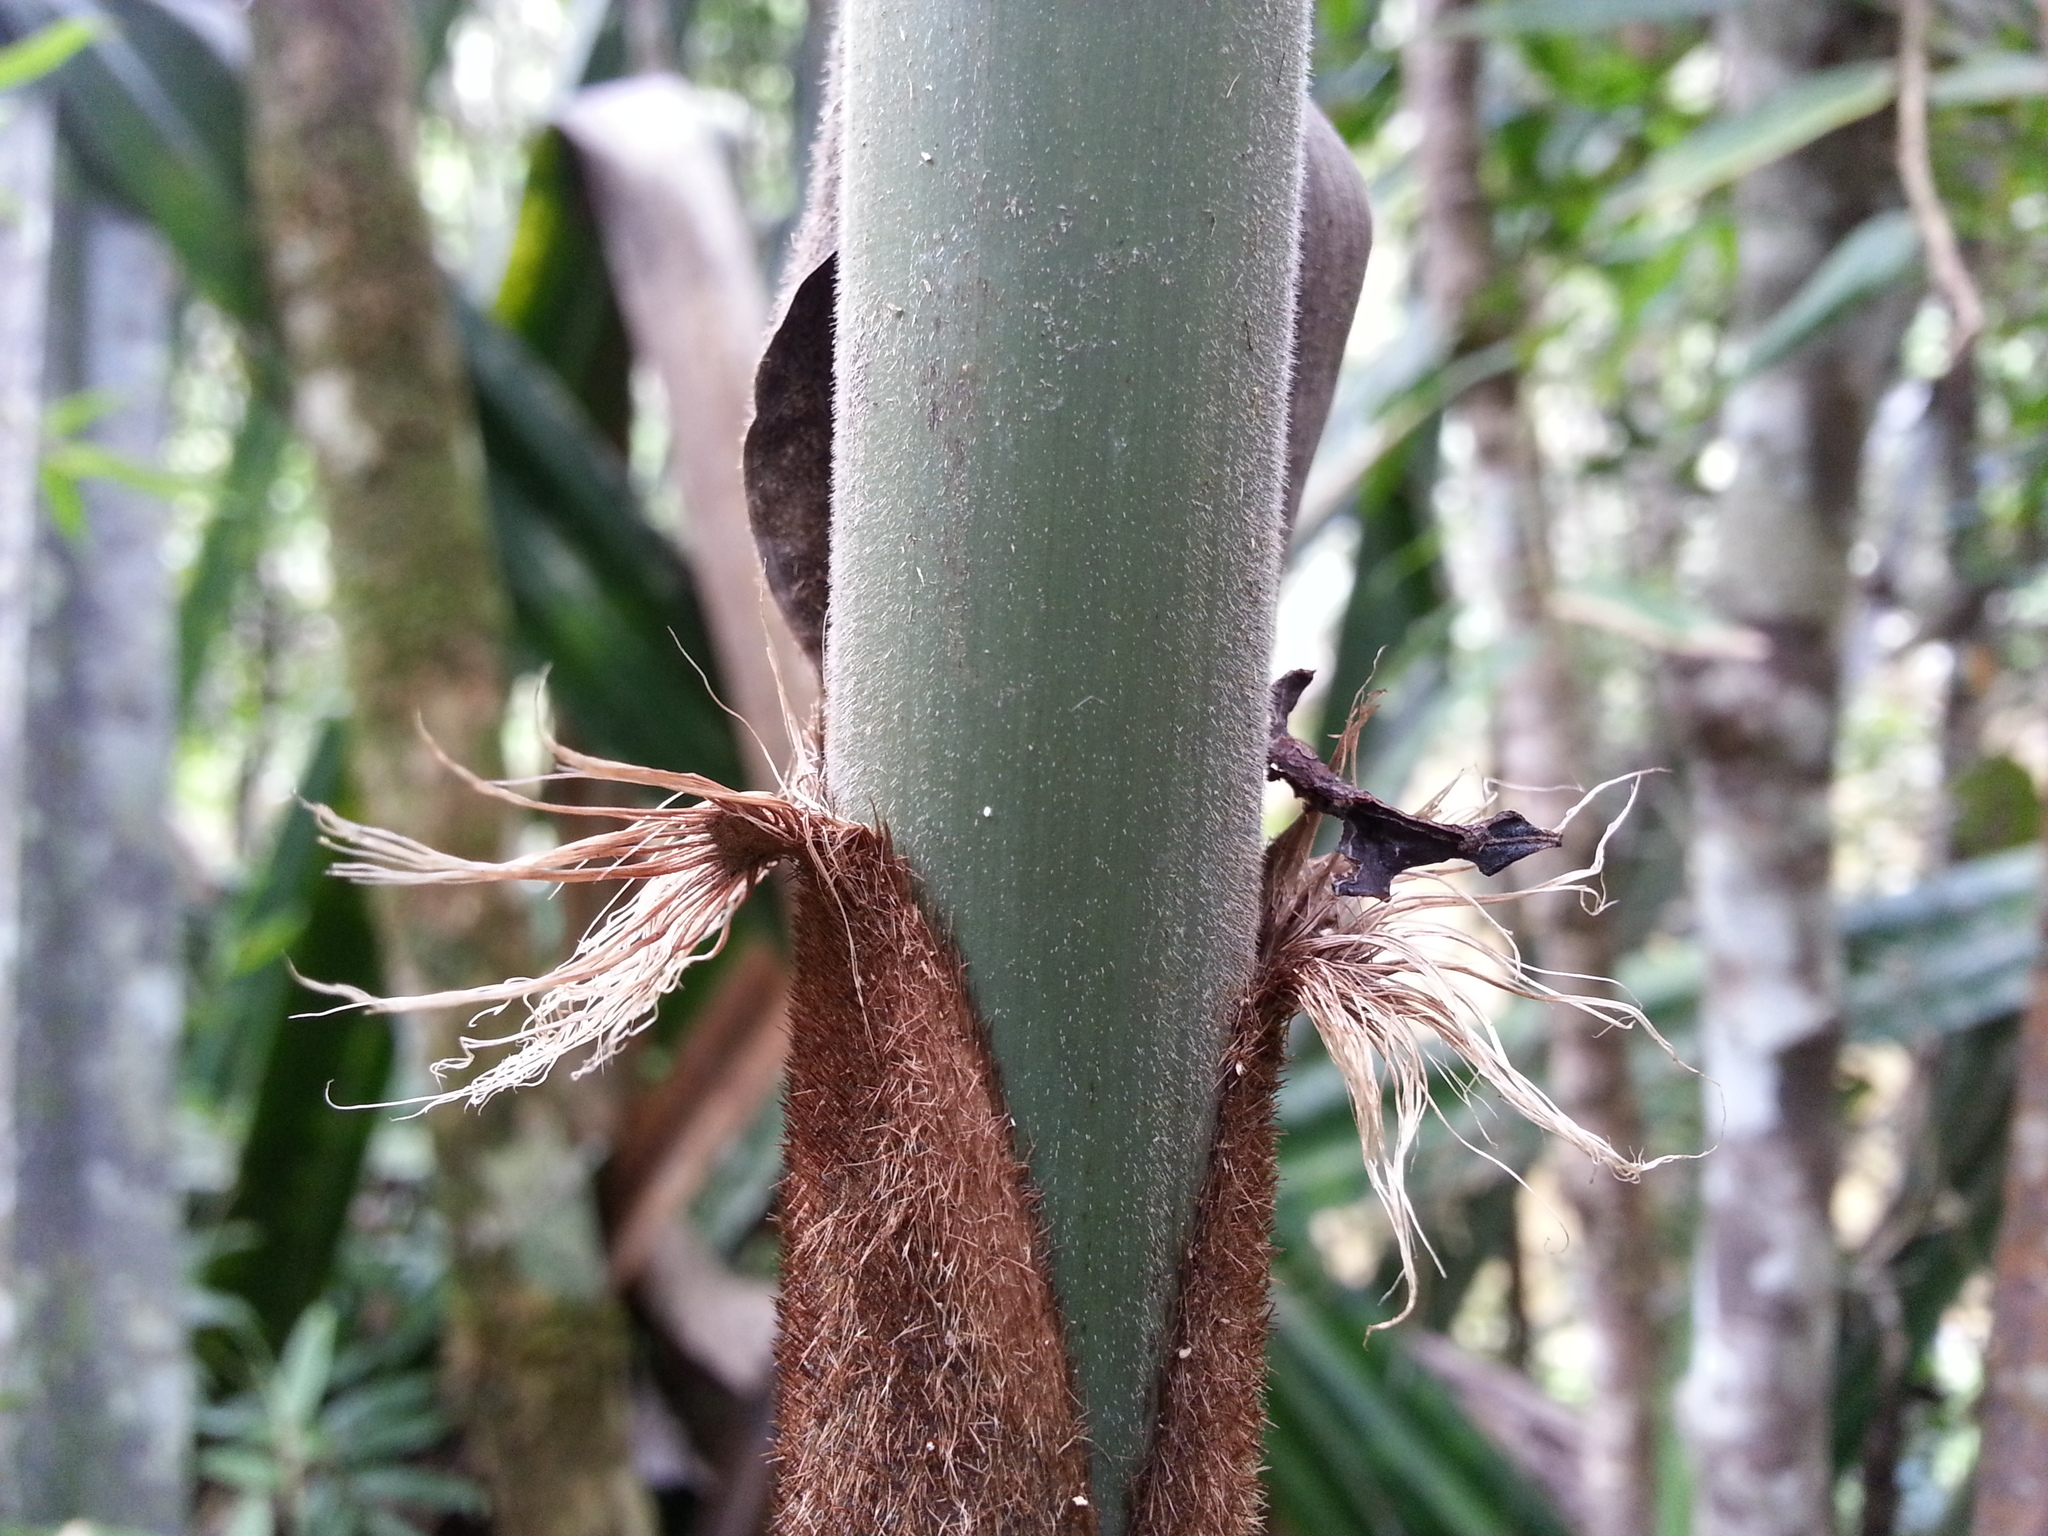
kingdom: Plantae
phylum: Tracheophyta
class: Liliopsida
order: Poales
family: Poaceae
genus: Decaryochloa
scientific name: Decaryochloa diadelpha
